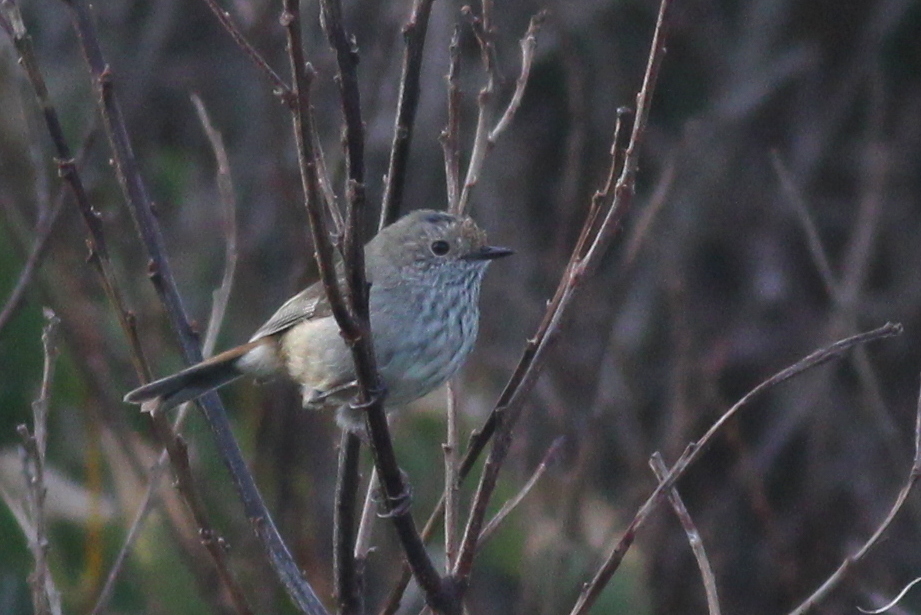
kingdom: Animalia
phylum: Chordata
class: Aves
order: Passeriformes
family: Acanthizidae
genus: Acanthiza
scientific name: Acanthiza pusilla
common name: Brown thornbill
